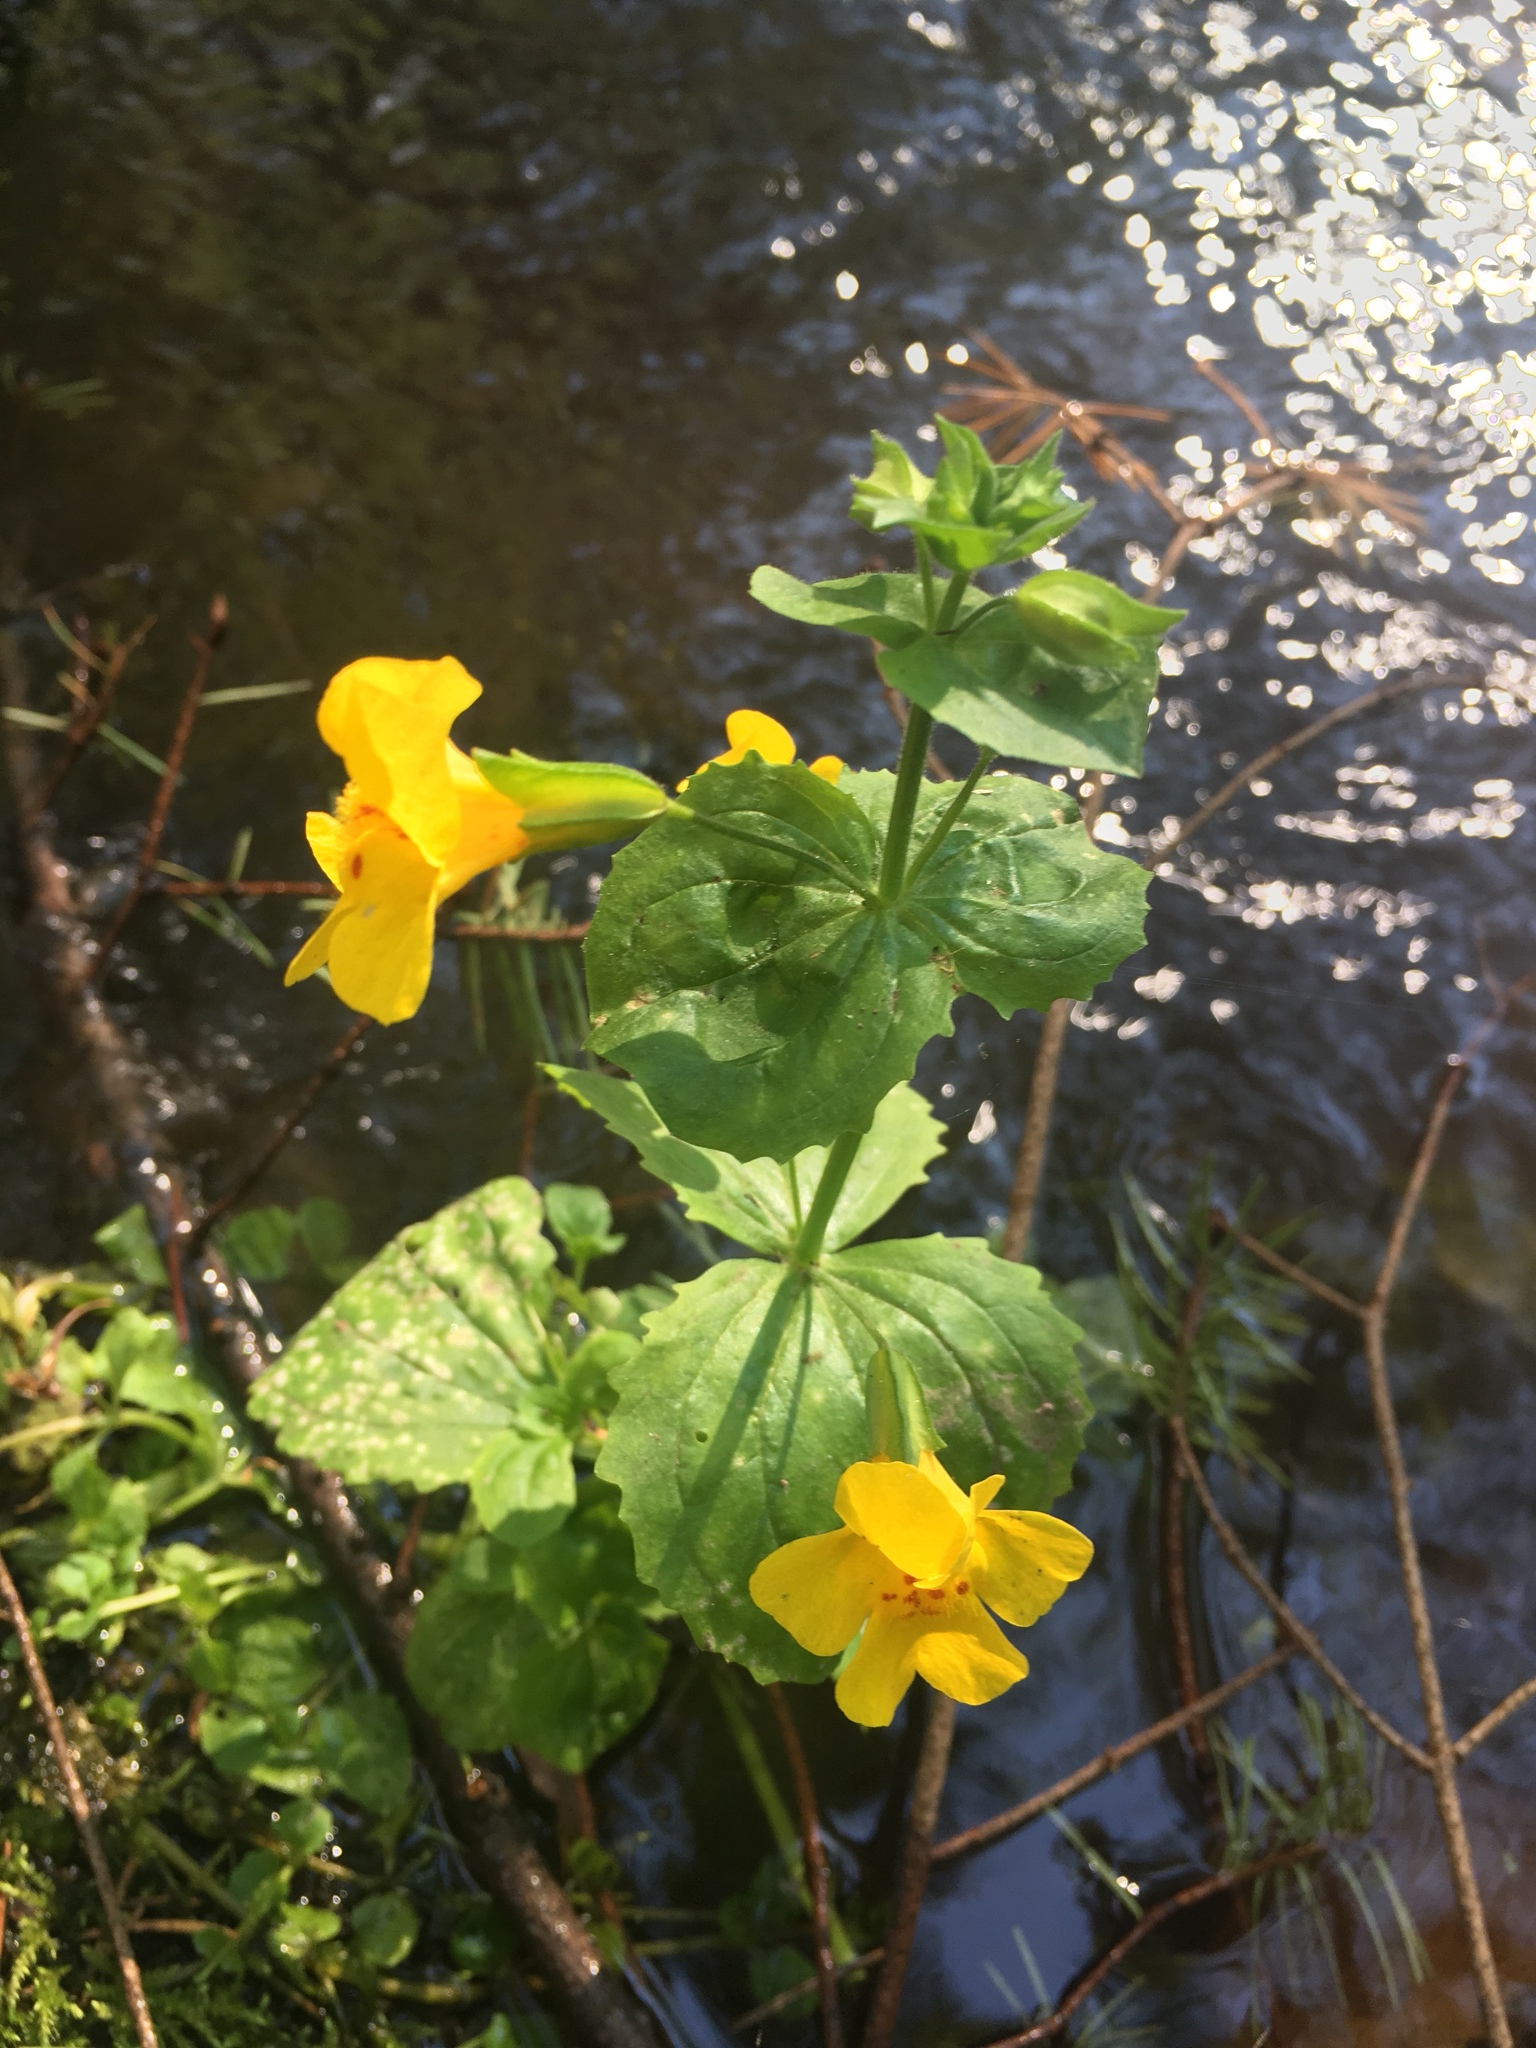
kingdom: Plantae
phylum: Tracheophyta
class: Magnoliopsida
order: Lamiales
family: Phrymaceae
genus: Erythranthe
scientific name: Erythranthe guttata
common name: Monkeyflower
